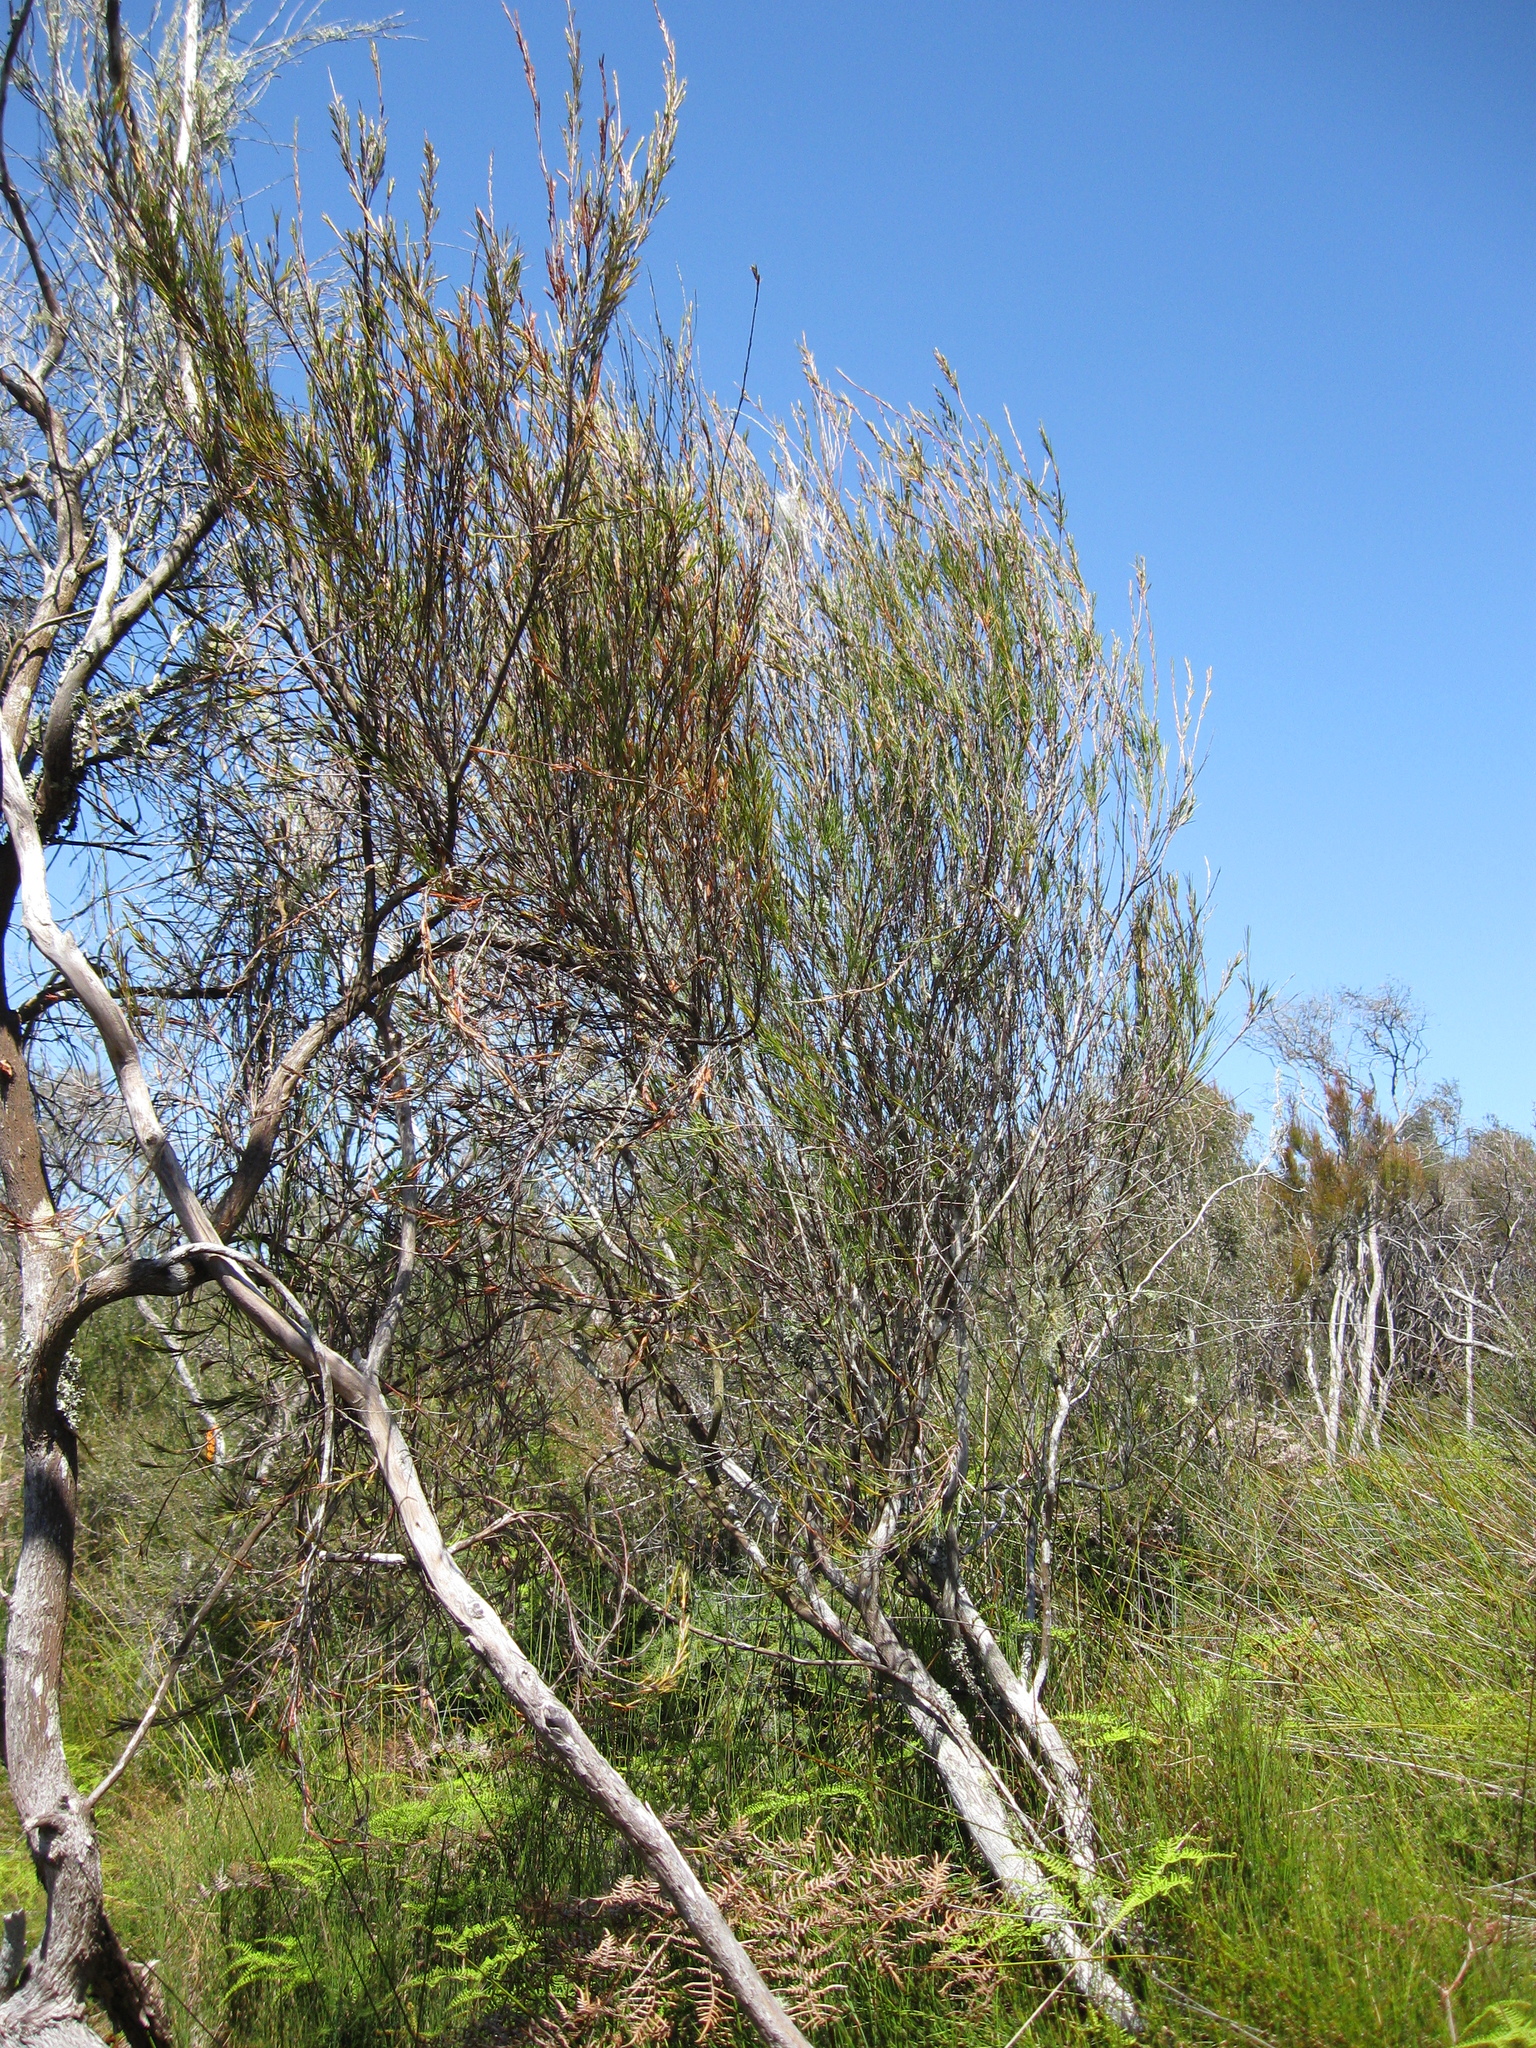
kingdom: Plantae
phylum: Tracheophyta
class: Magnoliopsida
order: Ericales
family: Ericaceae
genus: Dracophyllum
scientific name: Dracophyllum lessonianum
